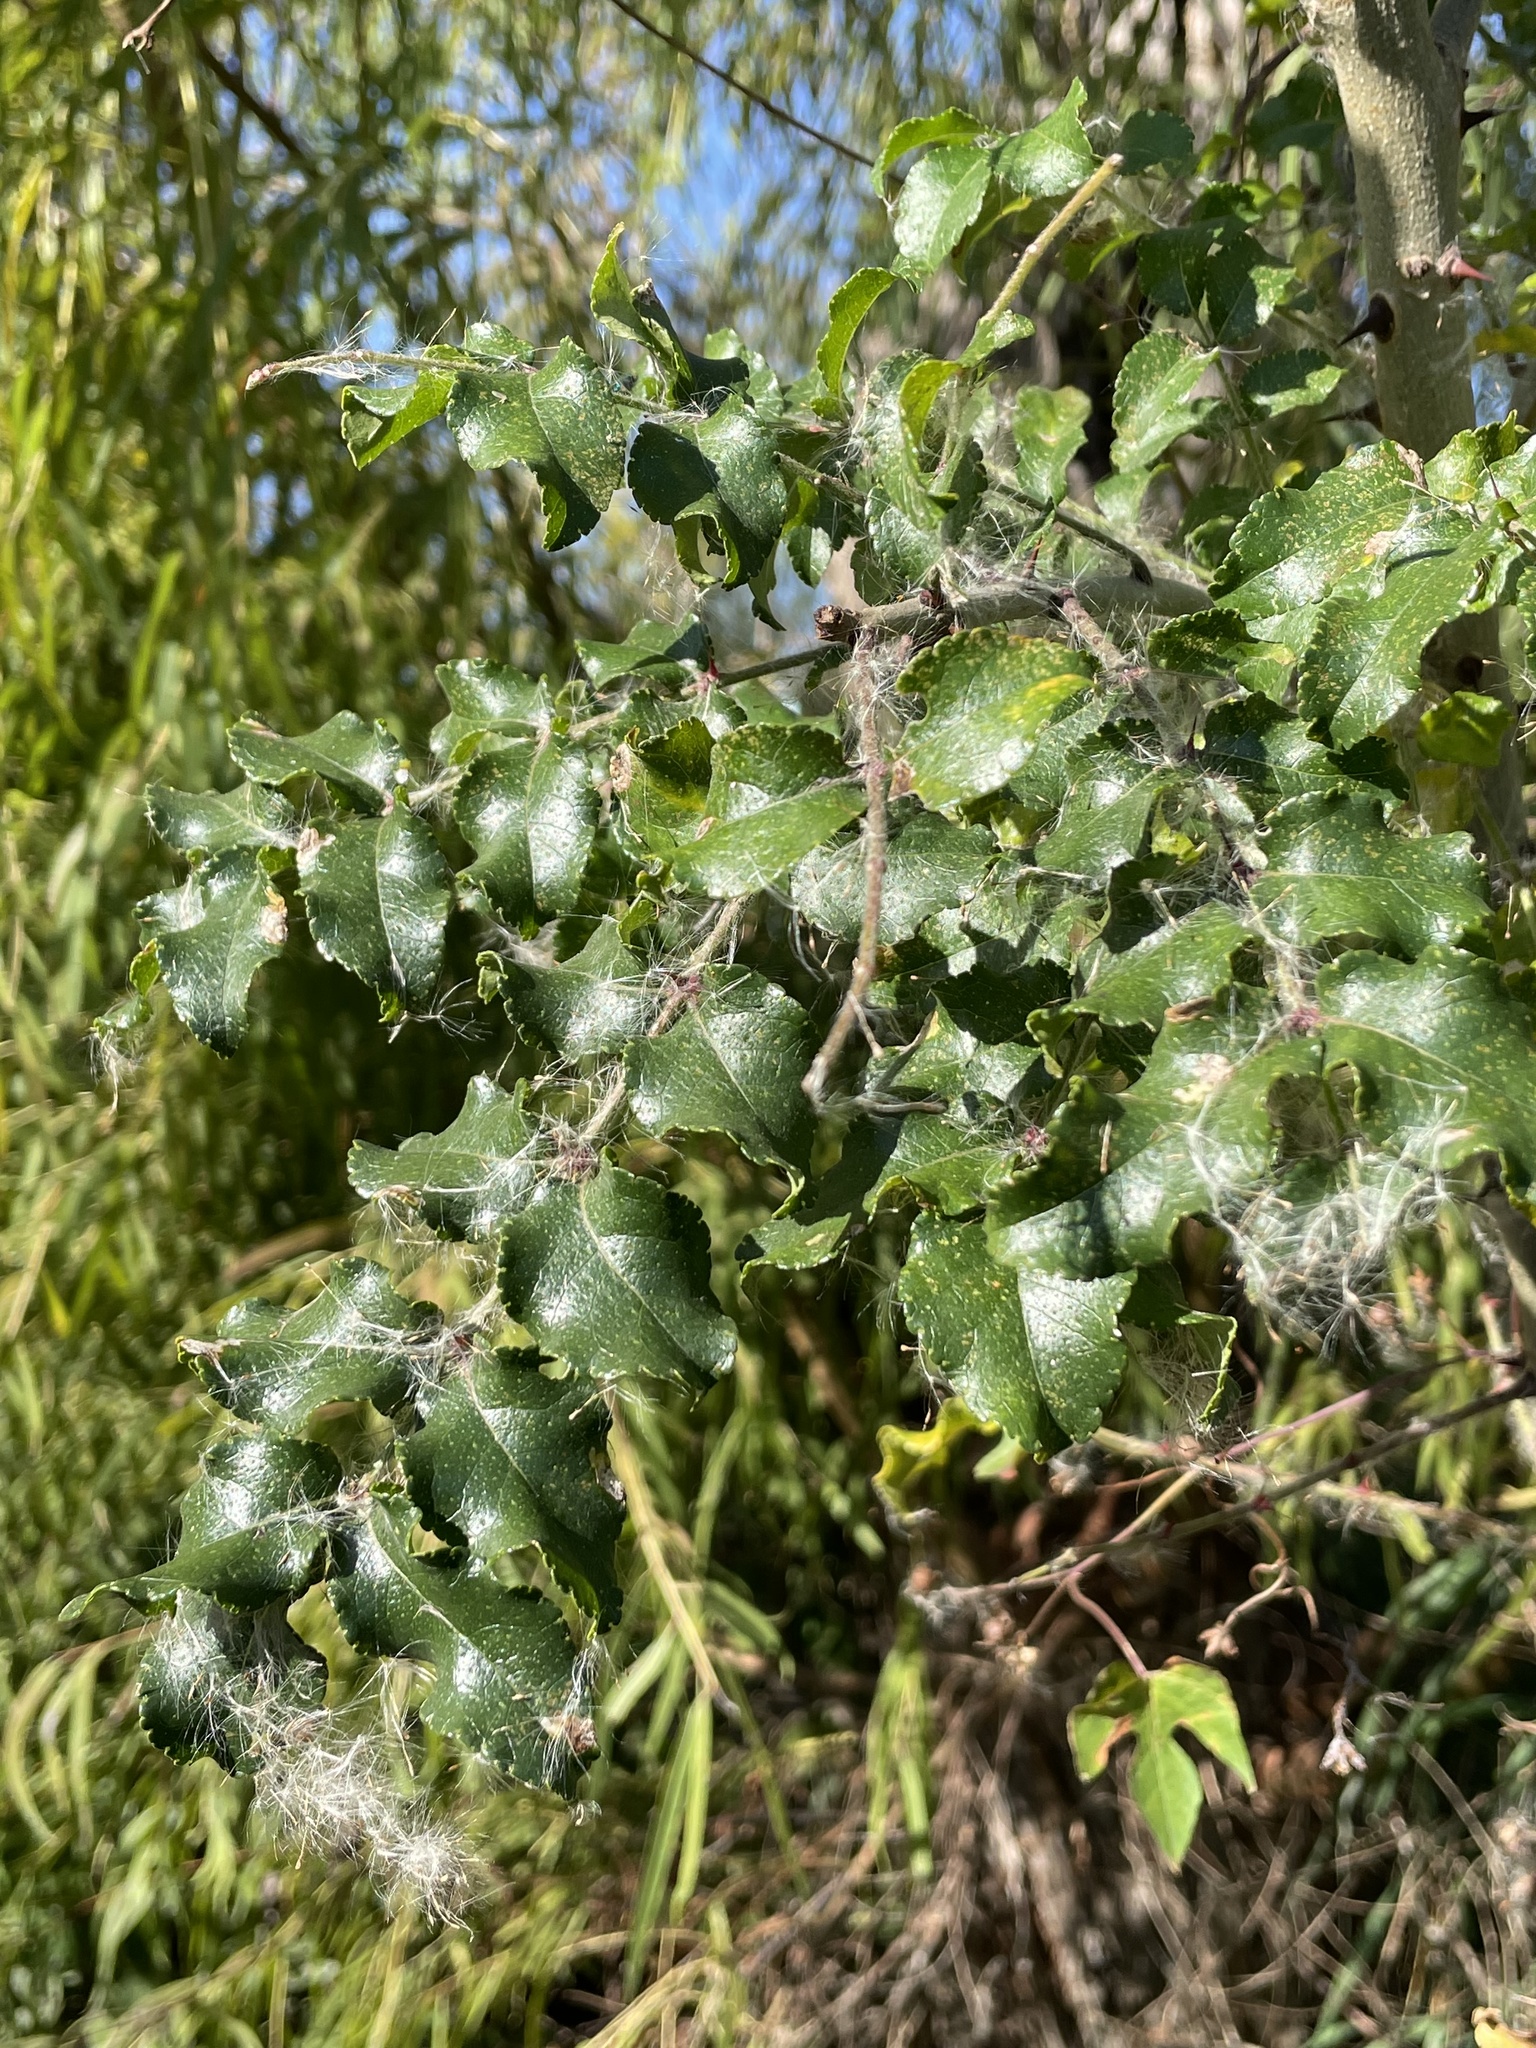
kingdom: Plantae
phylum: Tracheophyta
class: Magnoliopsida
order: Sapindales
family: Rutaceae
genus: Zanthoxylum
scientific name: Zanthoxylum clava-herculis
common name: Hercules'-club
